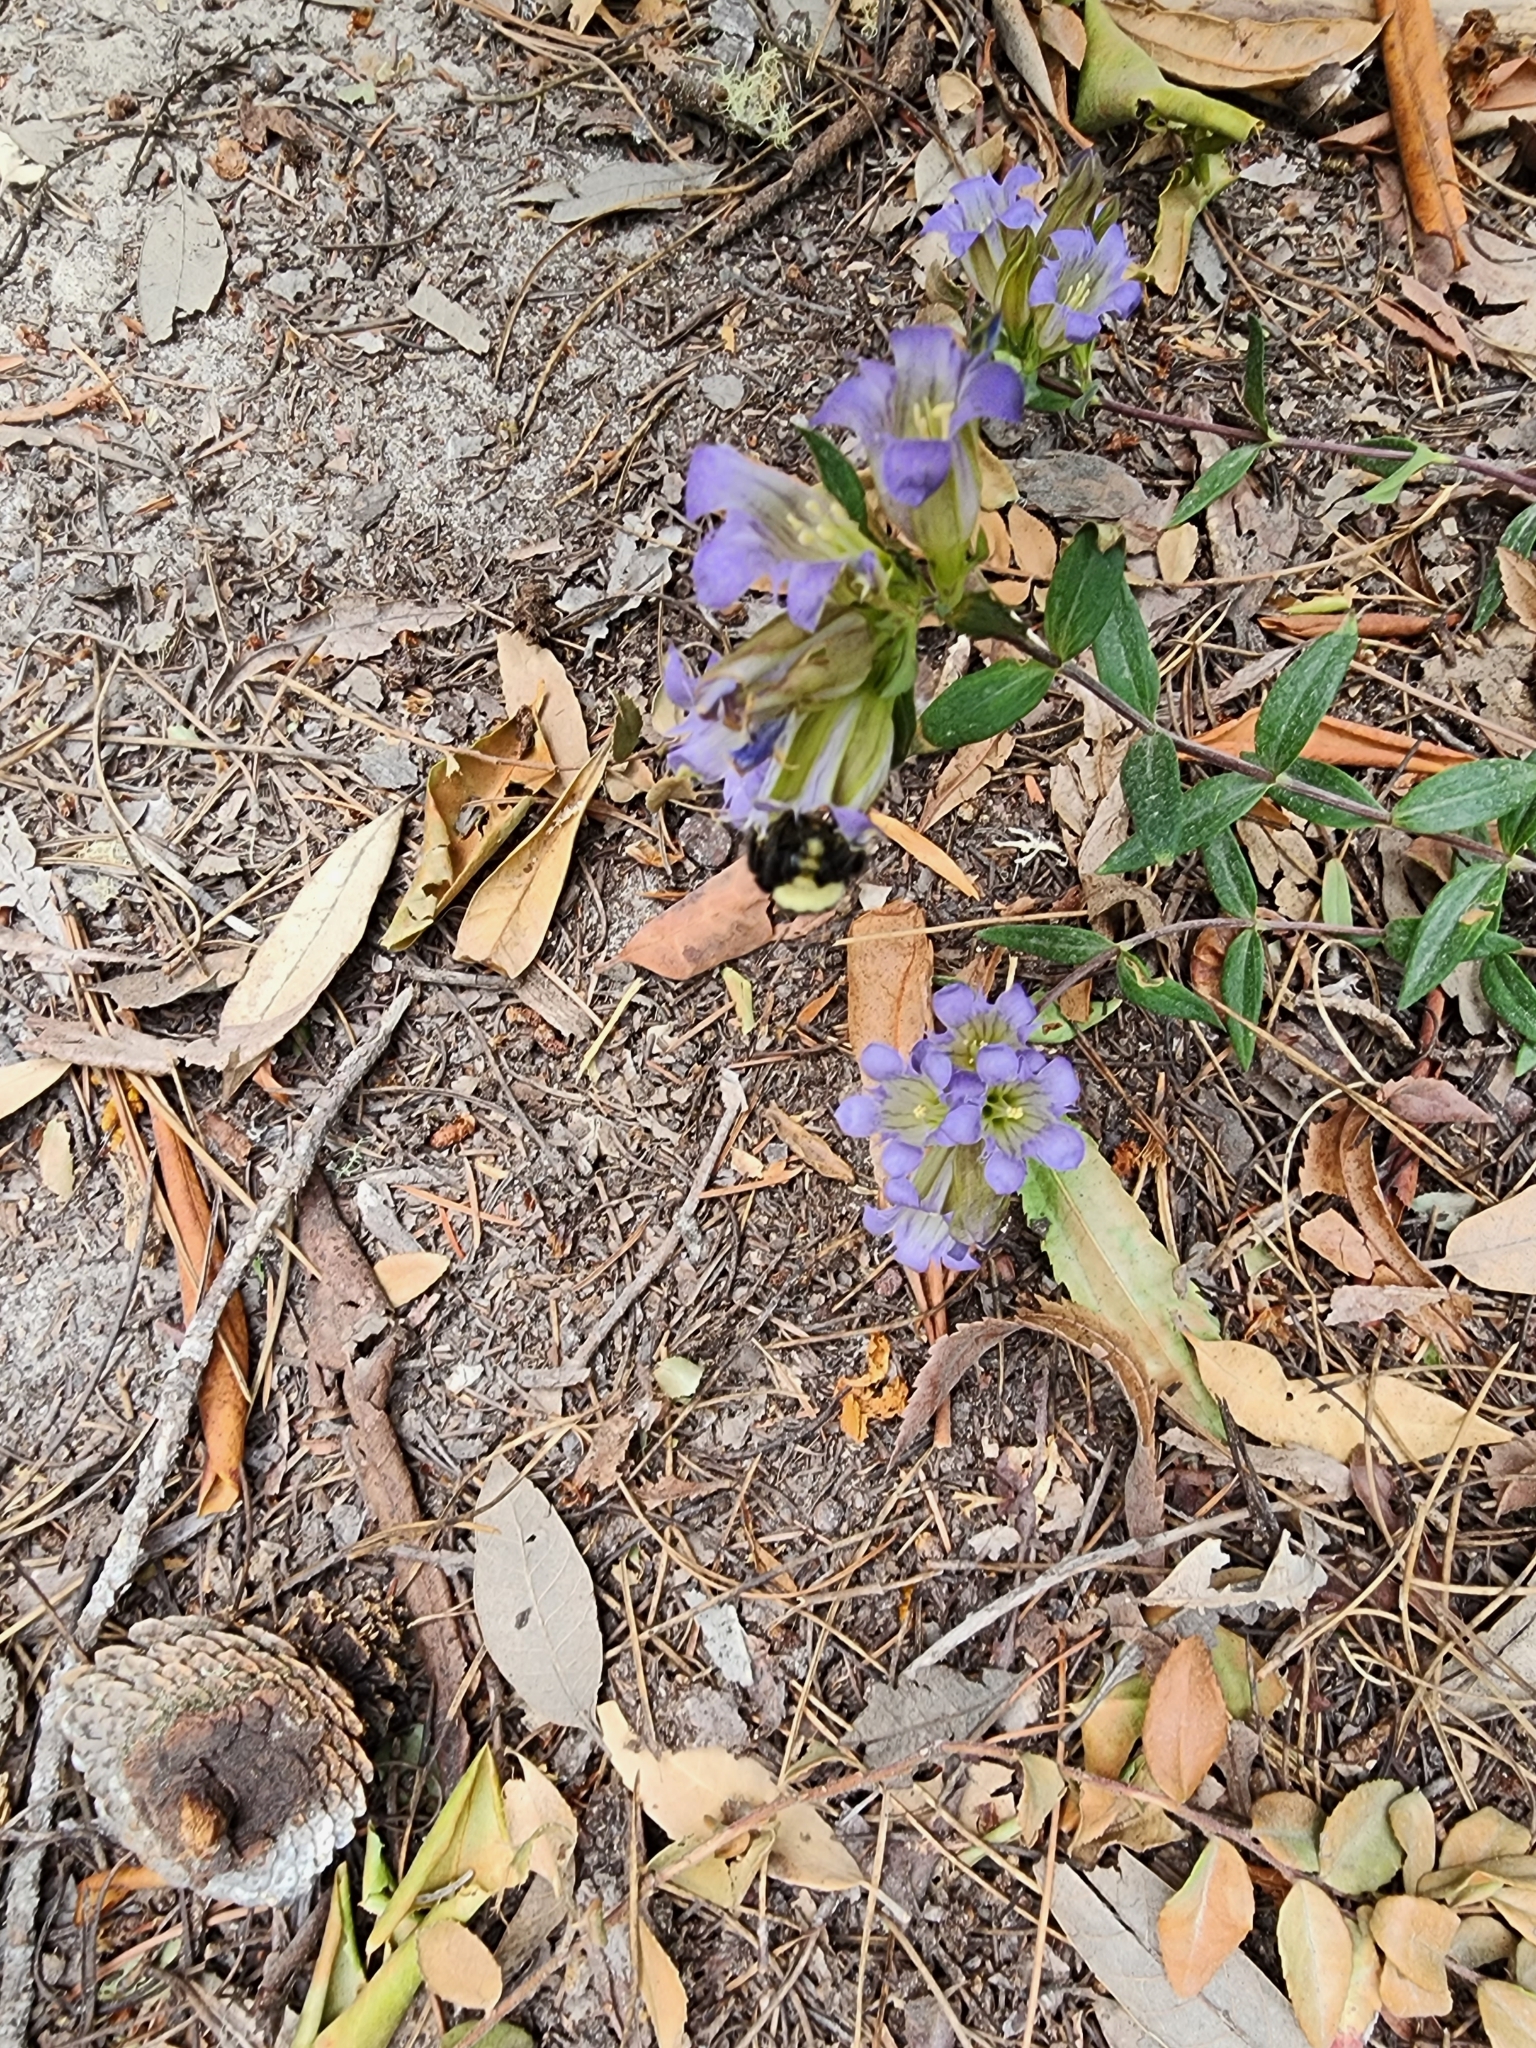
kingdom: Plantae
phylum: Tracheophyta
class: Magnoliopsida
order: Gentianales
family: Gentianaceae
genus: Gentiana
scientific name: Gentiana affinis
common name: Rocky mountain gentian
